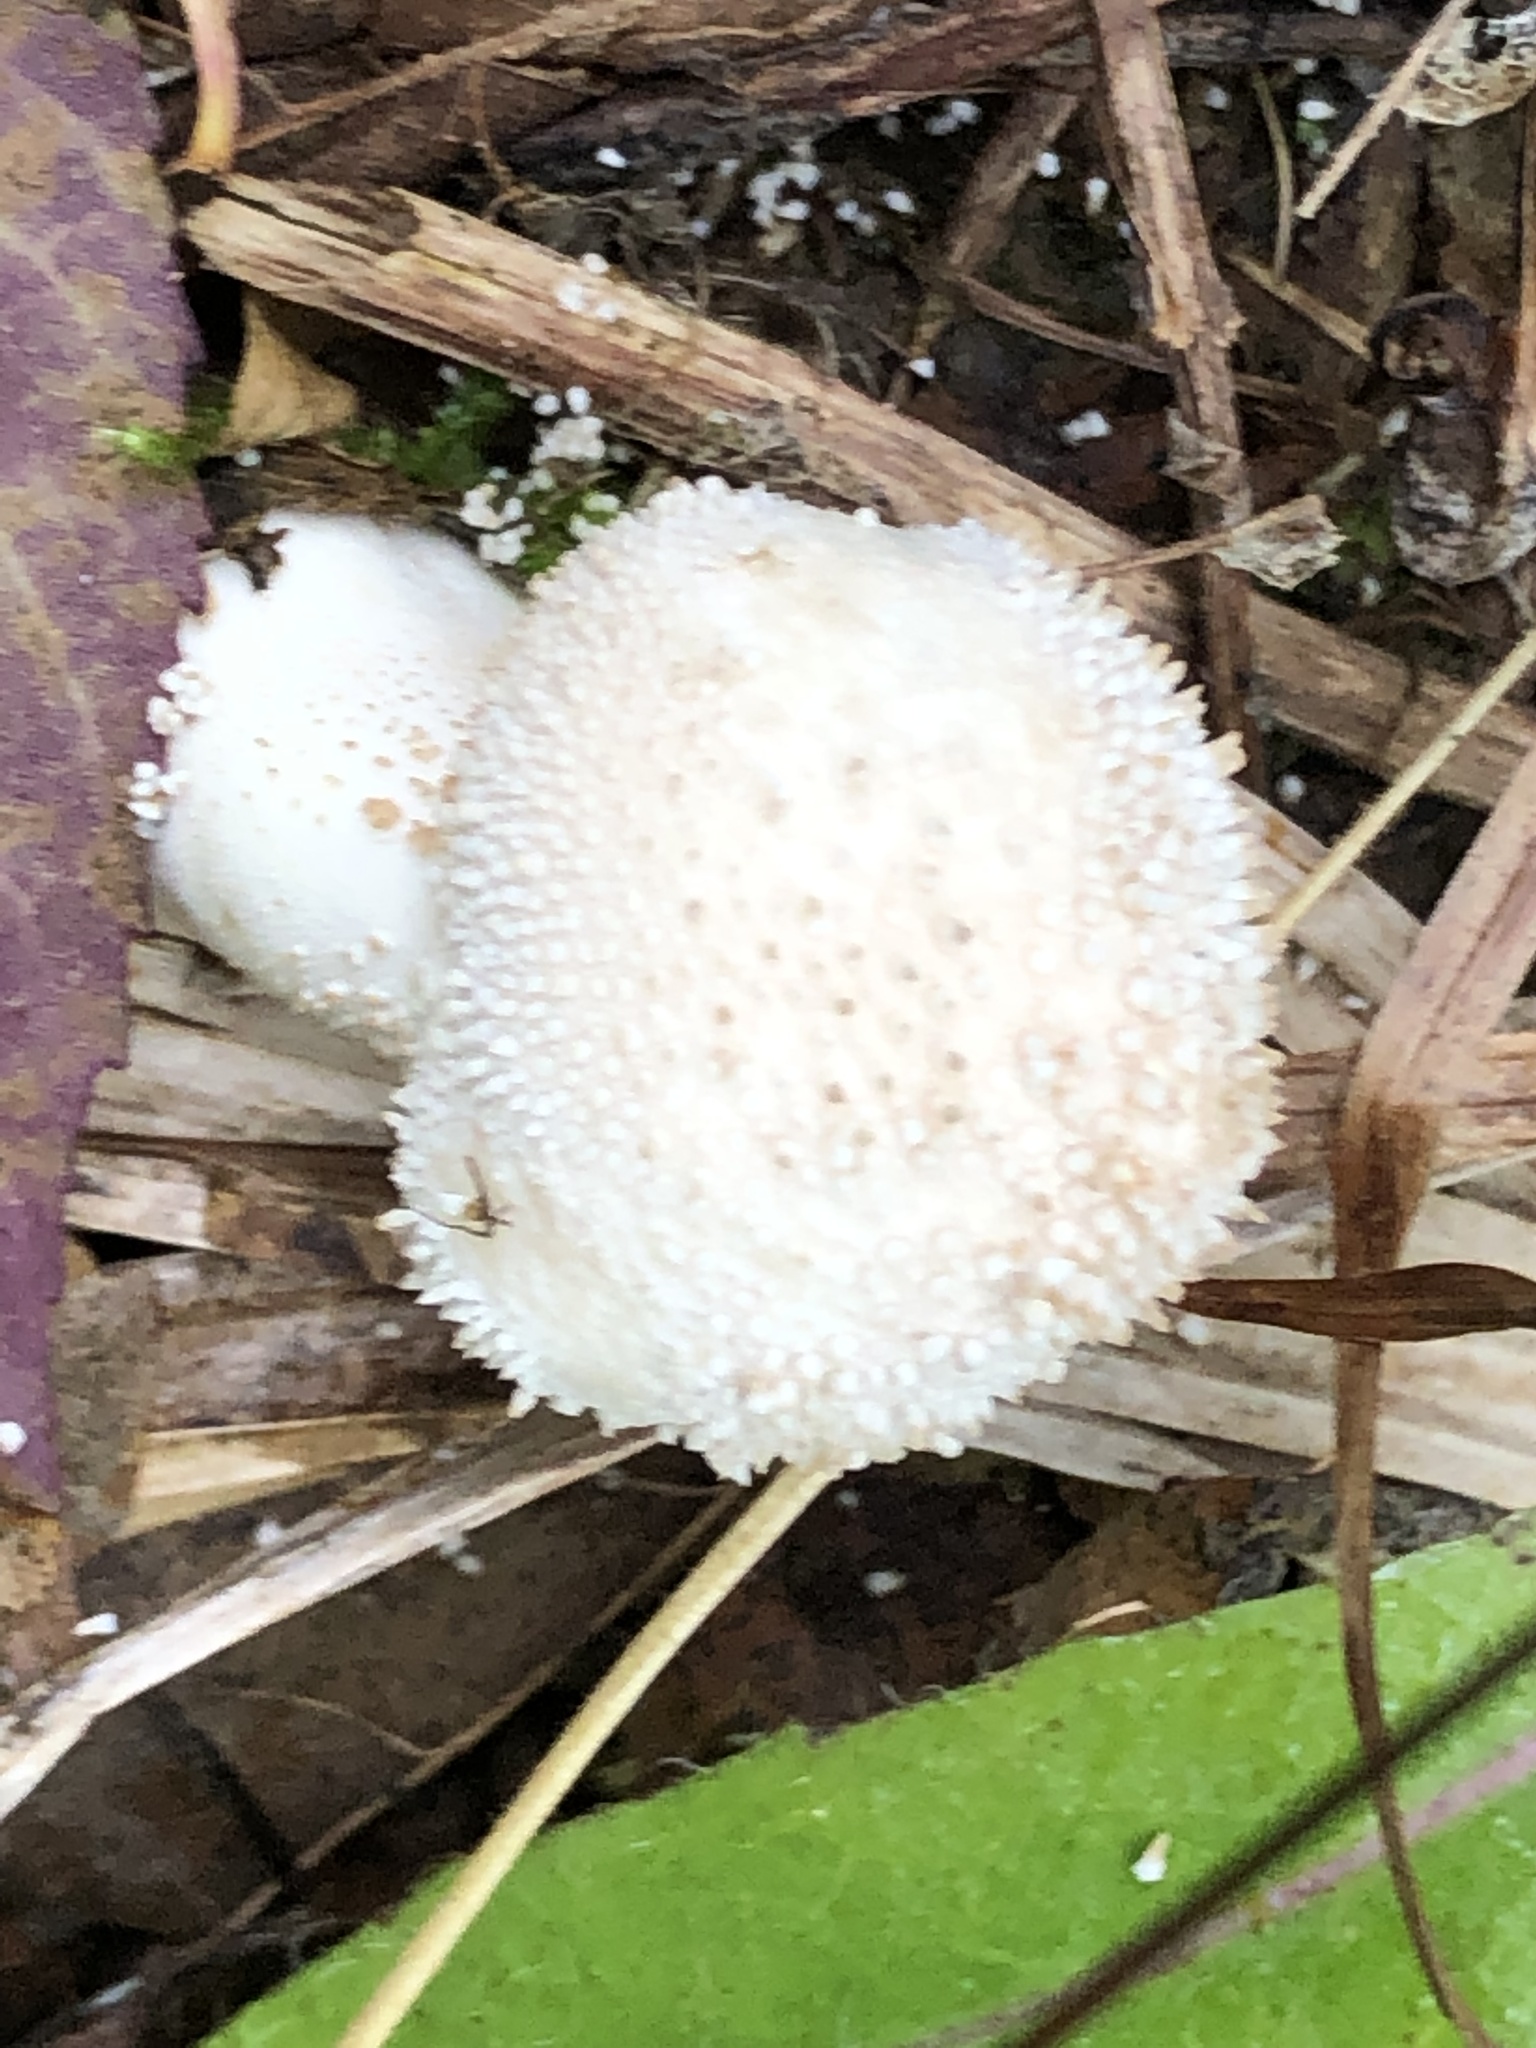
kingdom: Fungi
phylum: Basidiomycota
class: Agaricomycetes
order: Agaricales
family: Lycoperdaceae
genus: Lycoperdon
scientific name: Lycoperdon perlatum
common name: Common puffball
